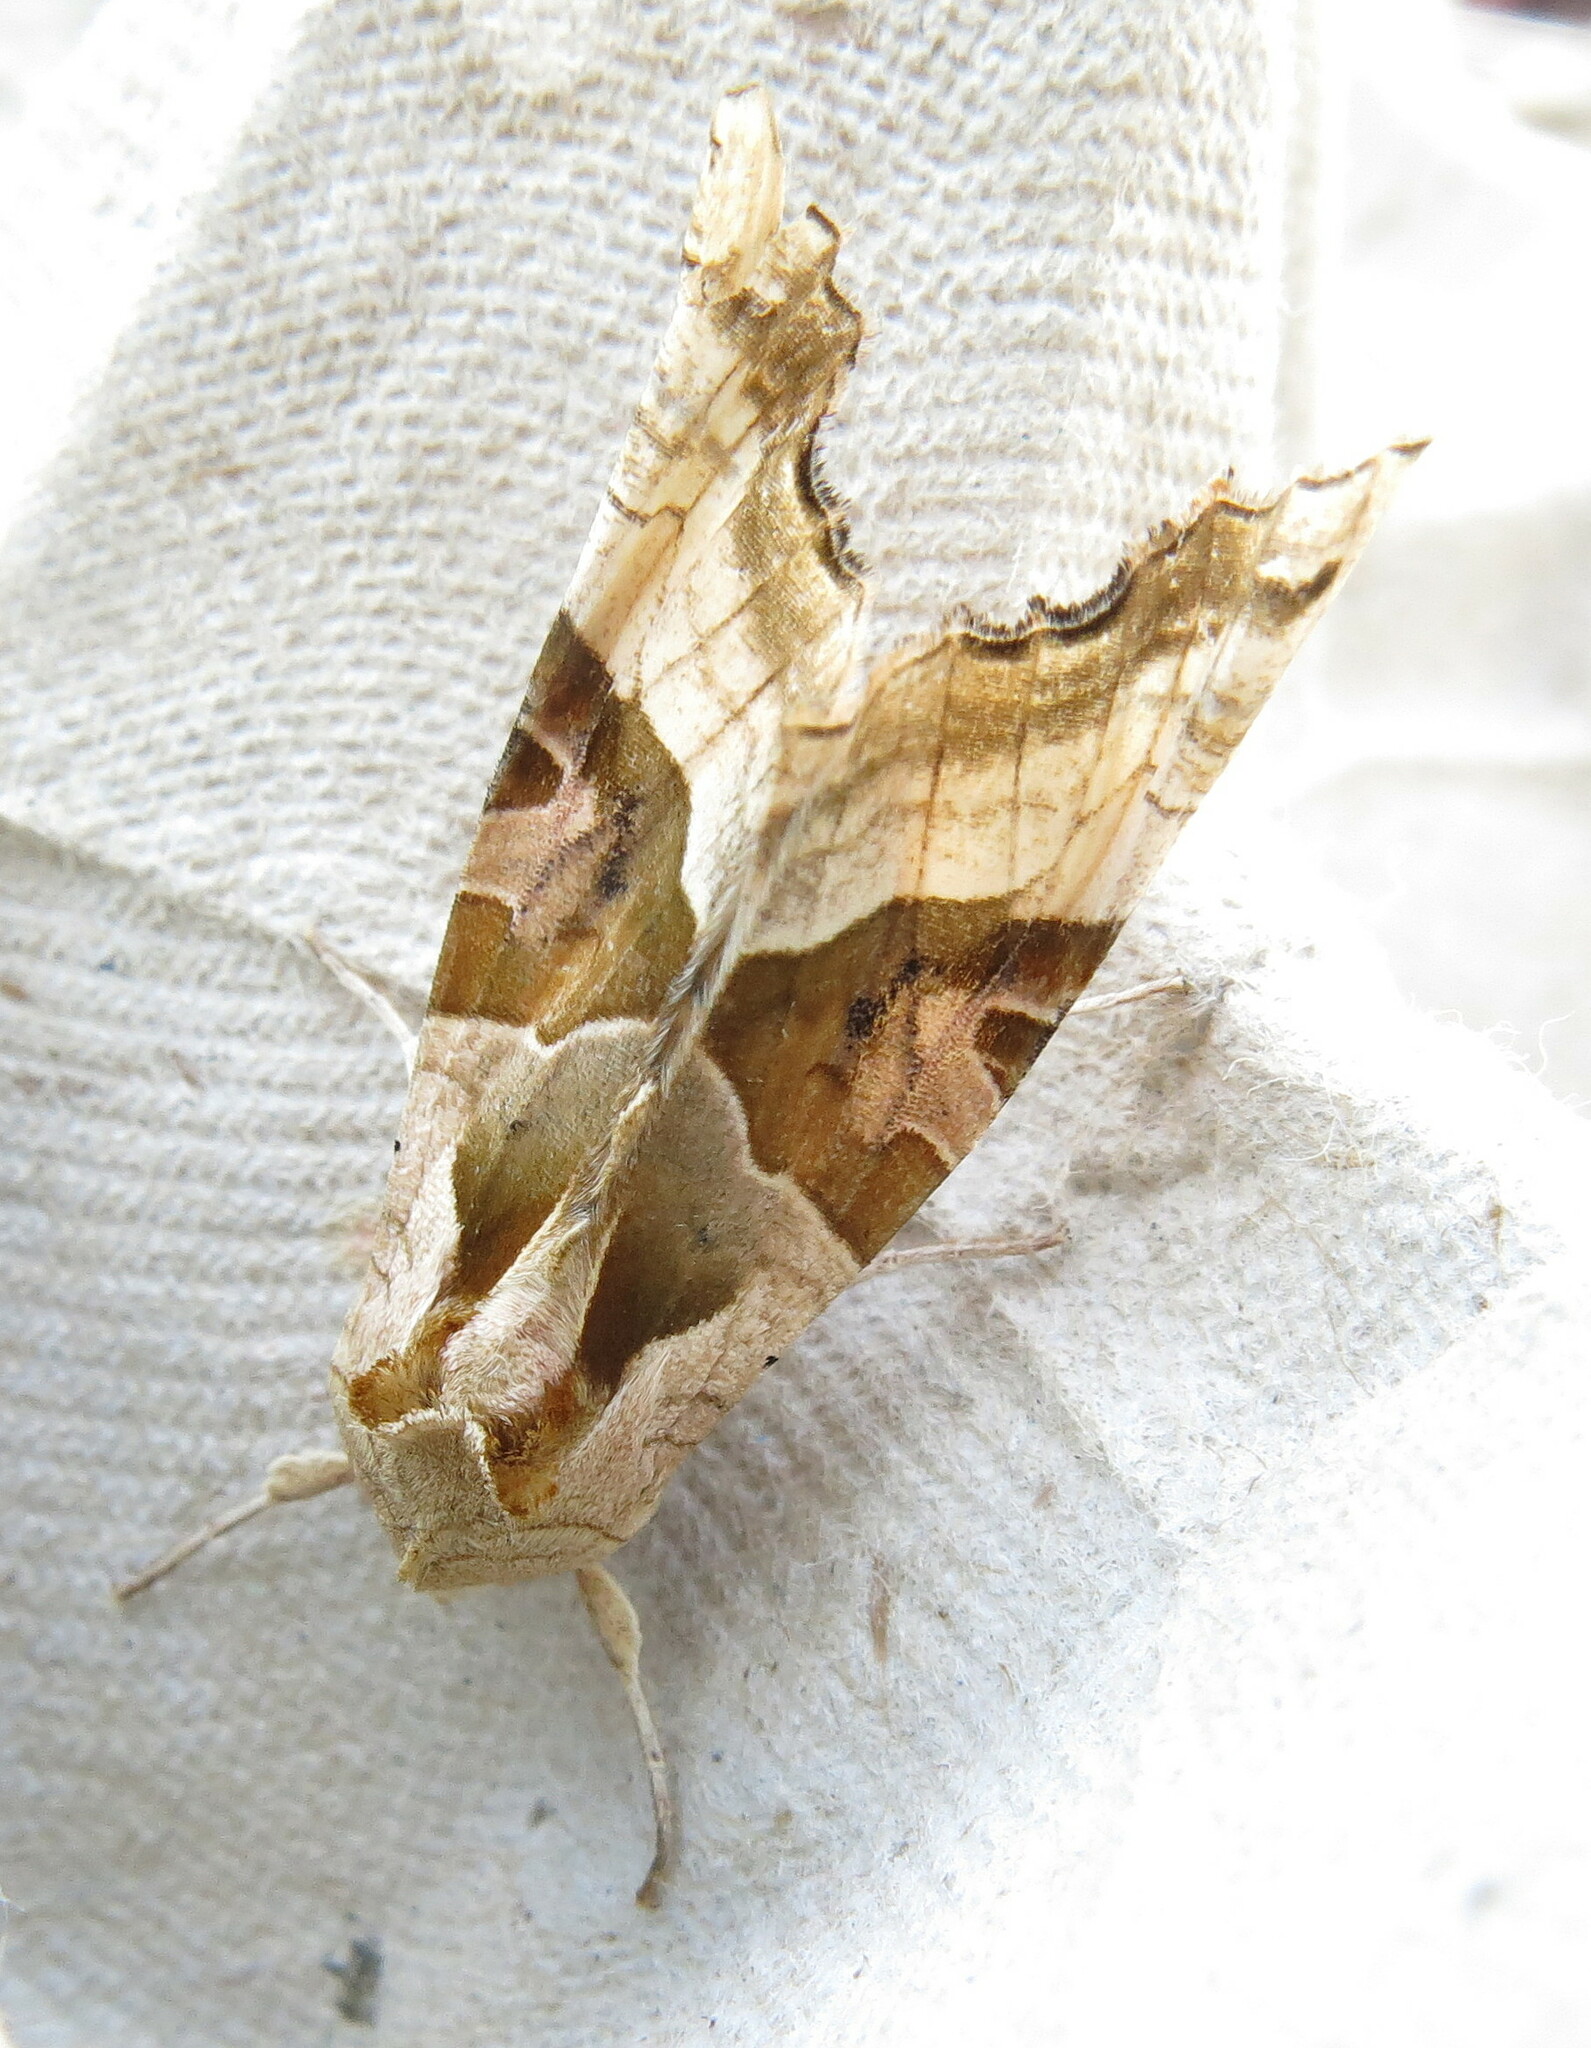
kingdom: Animalia
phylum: Arthropoda
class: Insecta
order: Lepidoptera
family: Noctuidae
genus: Phlogophora
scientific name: Phlogophora meticulosa
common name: Angle shades
